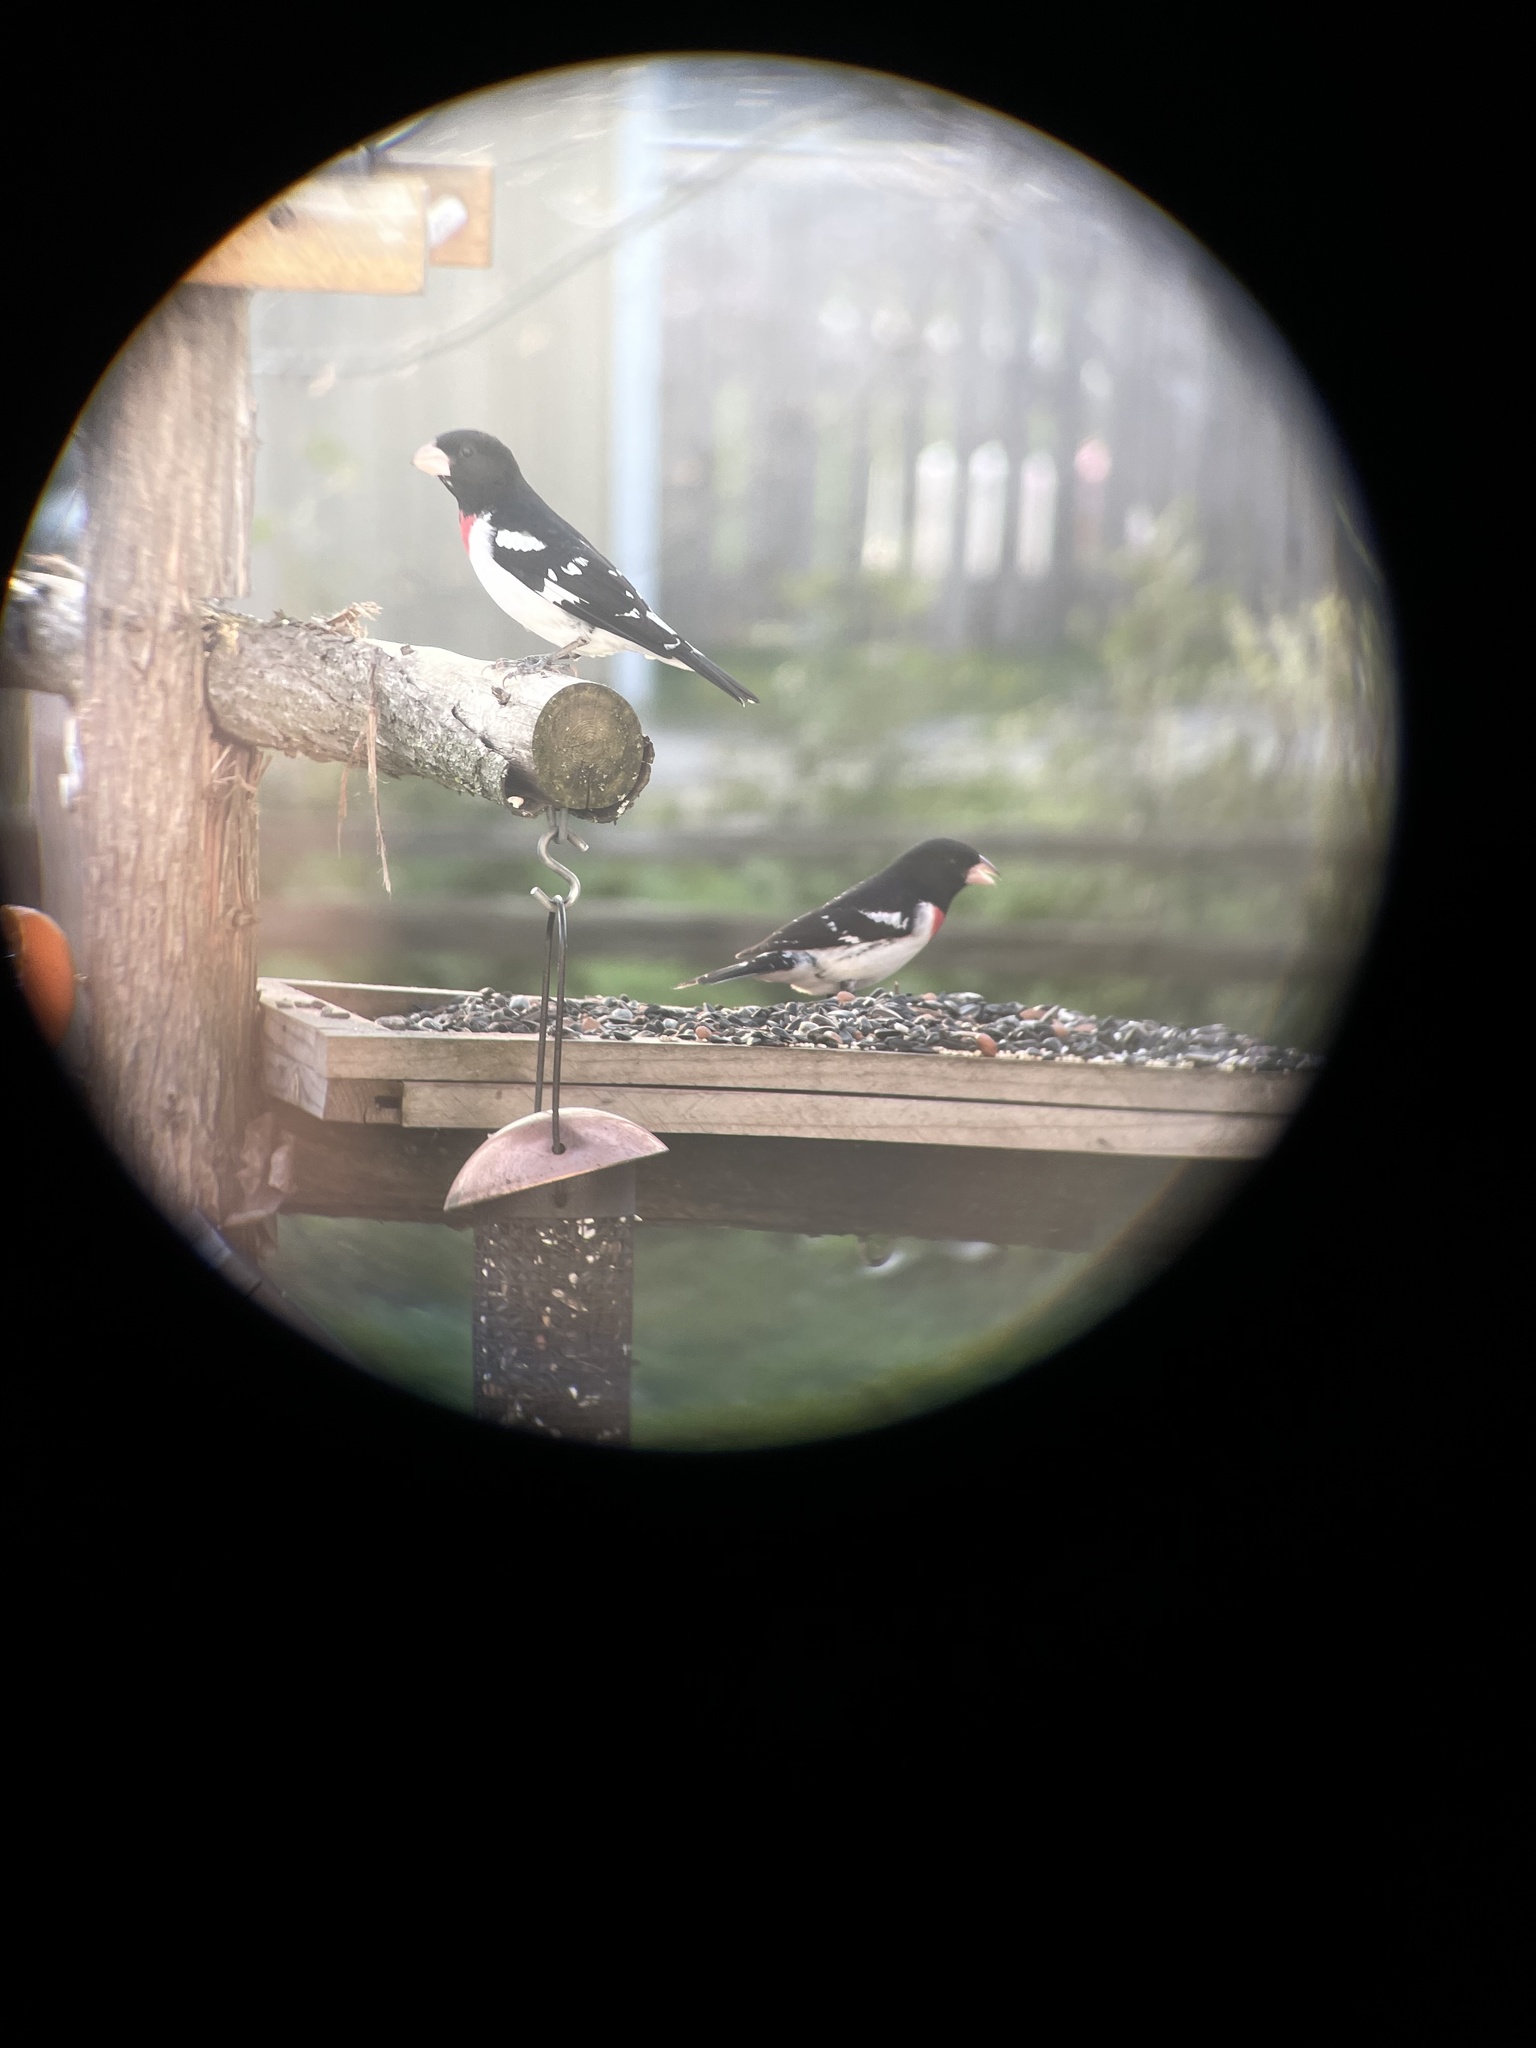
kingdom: Animalia
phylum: Chordata
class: Aves
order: Passeriformes
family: Cardinalidae
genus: Pheucticus
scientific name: Pheucticus ludovicianus
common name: Rose-breasted grosbeak
